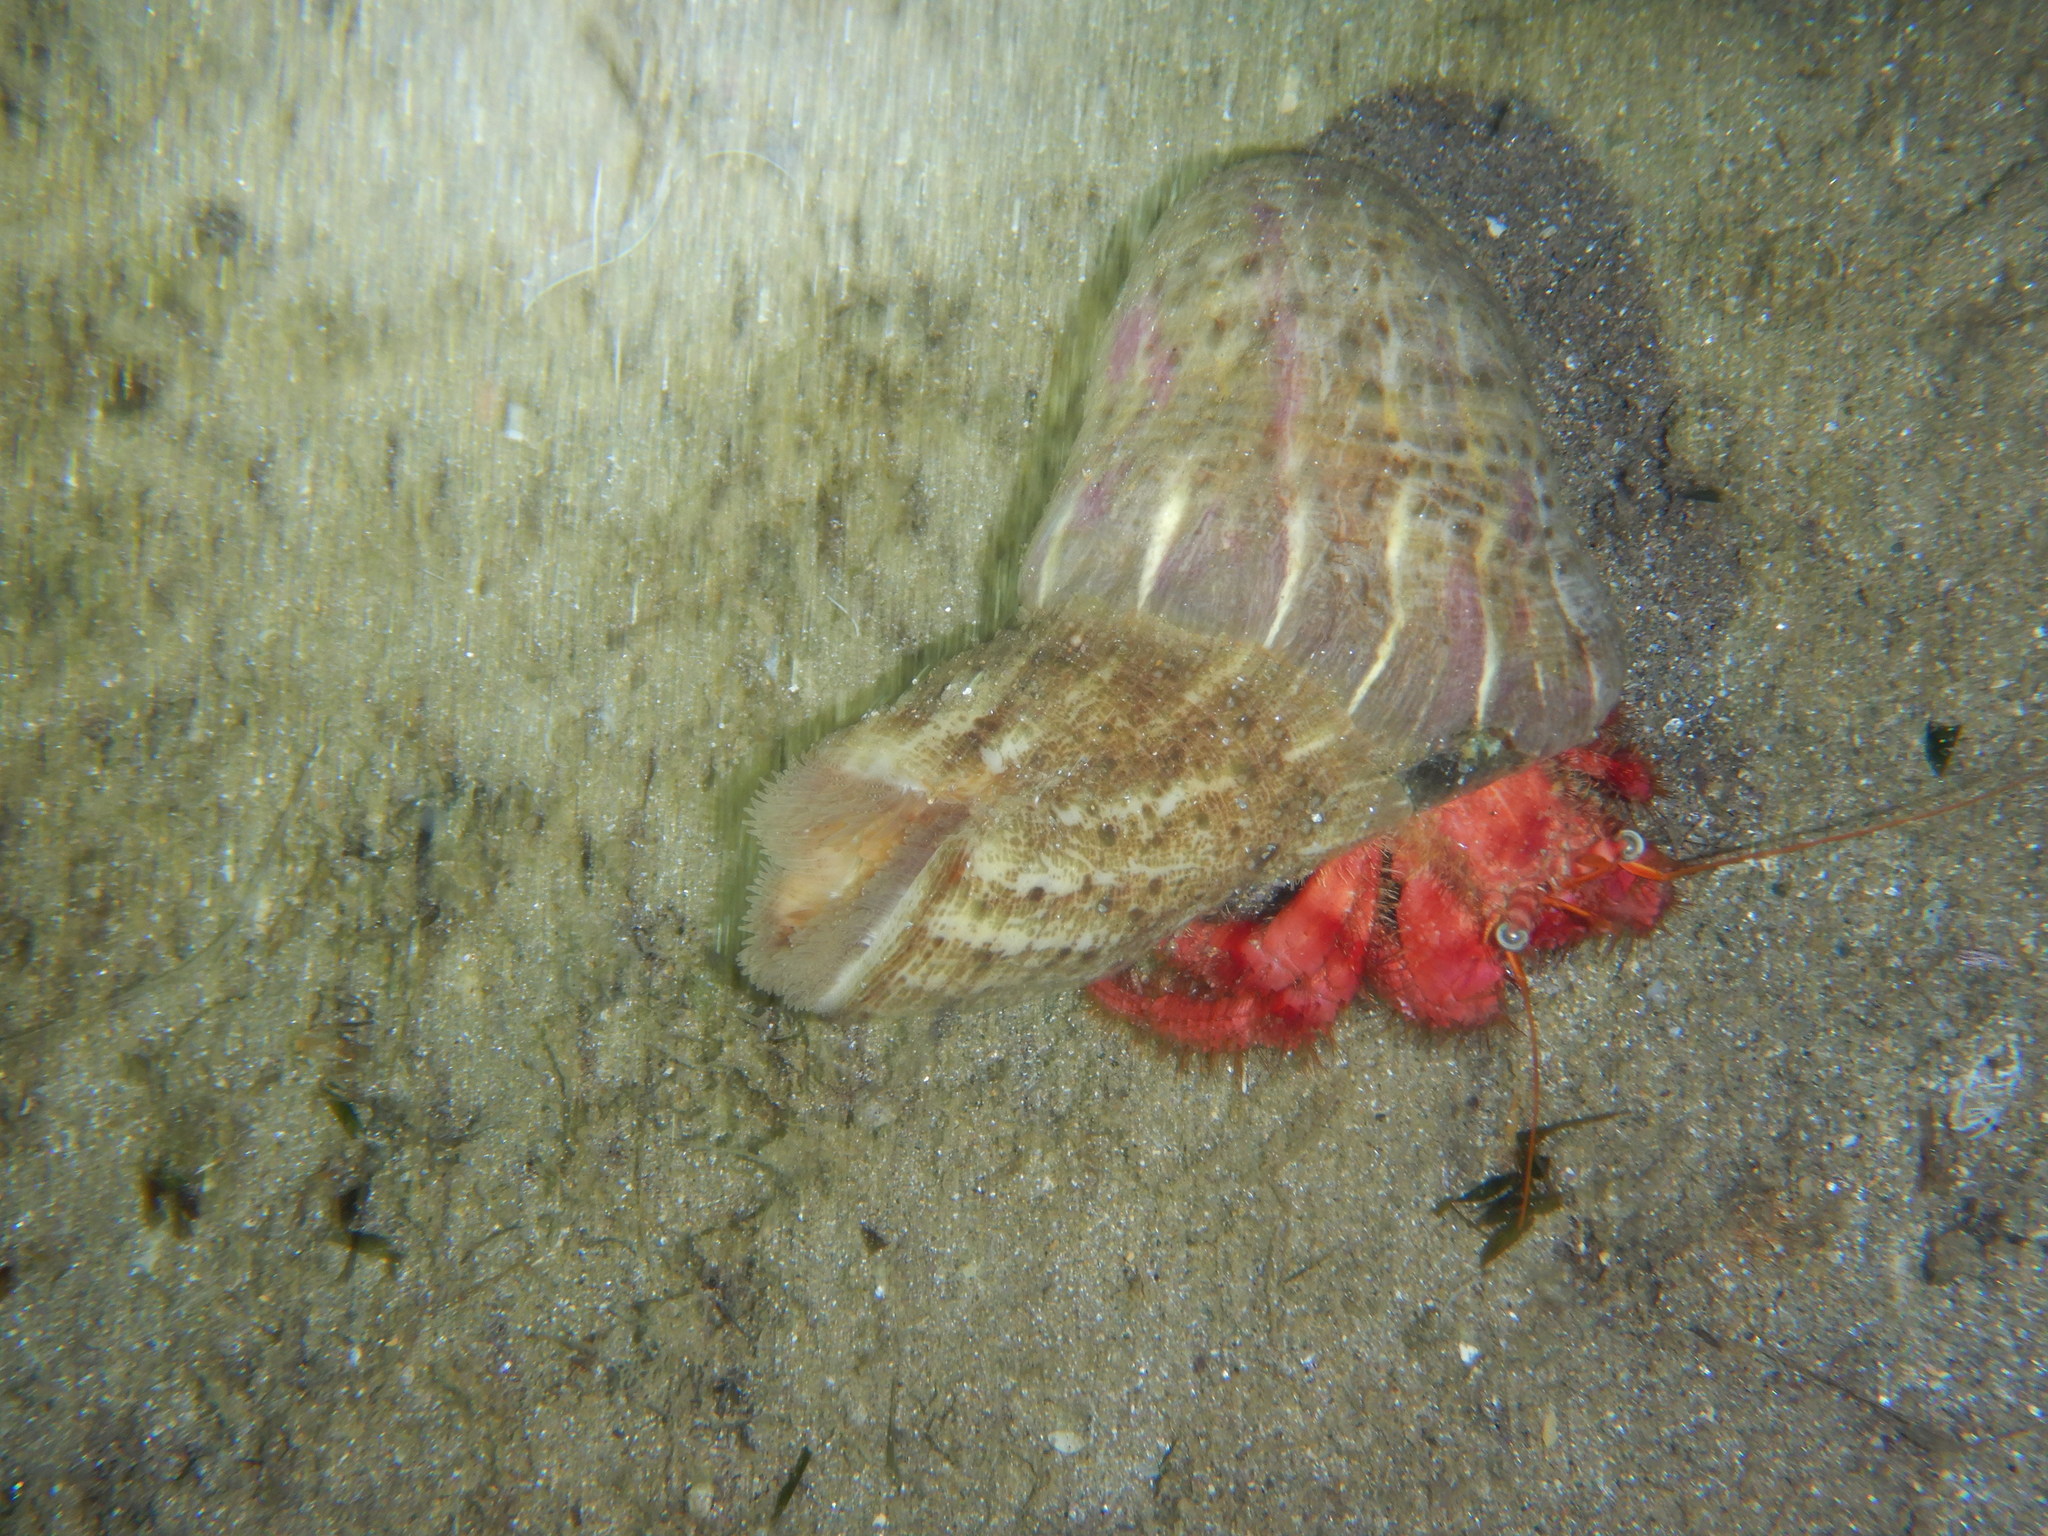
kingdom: Animalia
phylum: Arthropoda
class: Malacostraca
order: Decapoda
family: Diogenidae
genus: Dardanus
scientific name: Dardanus calidus
